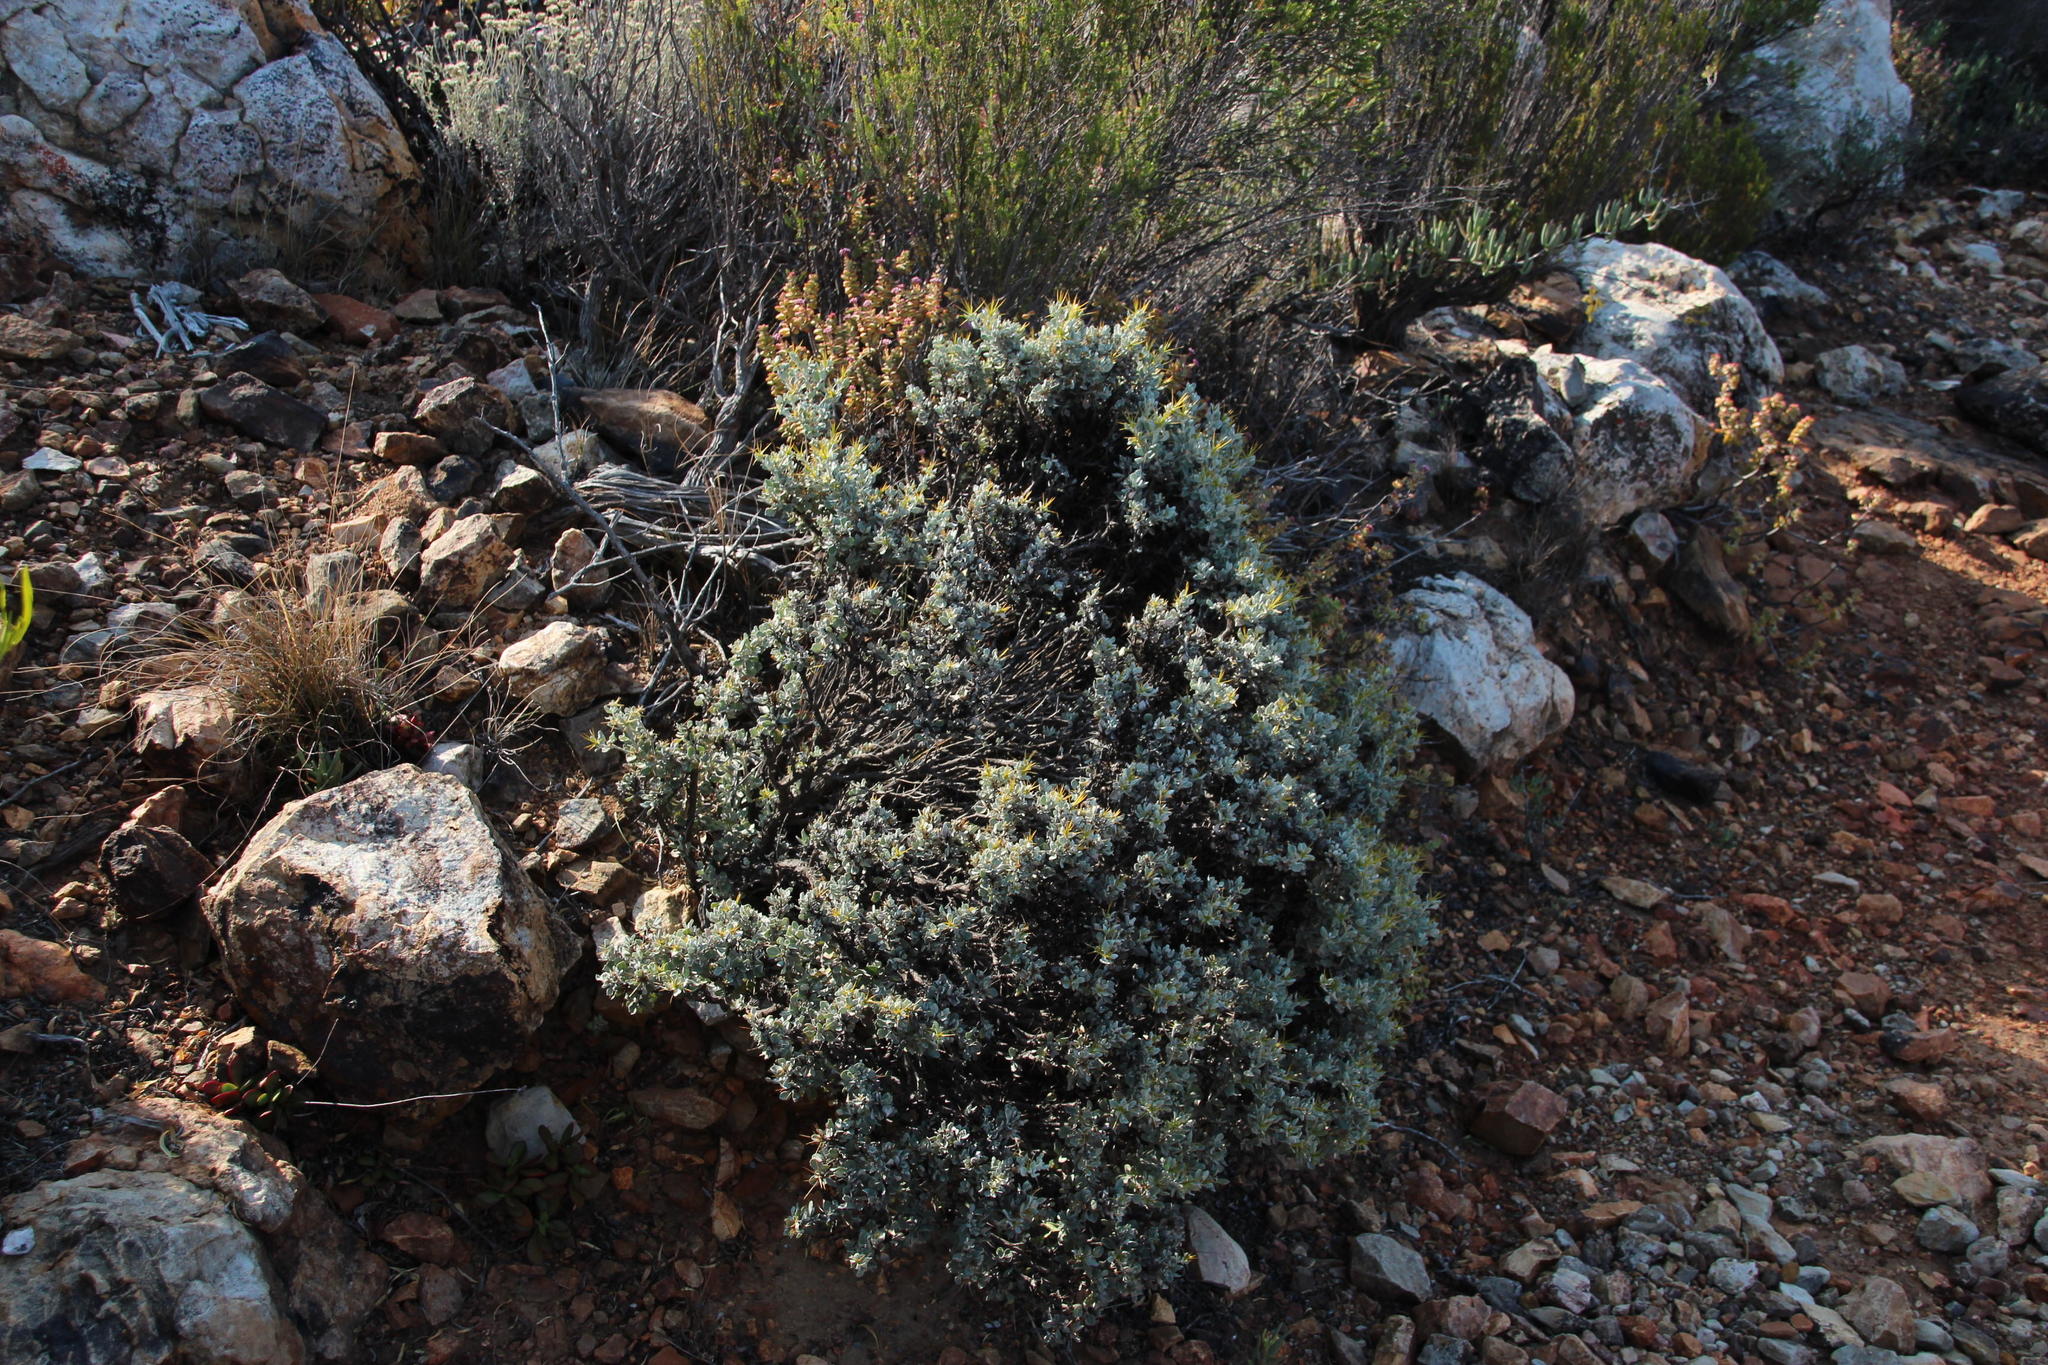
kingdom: Plantae
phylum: Tracheophyta
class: Magnoliopsida
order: Asterales
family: Asteraceae
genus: Macledium
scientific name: Macledium spinosum
